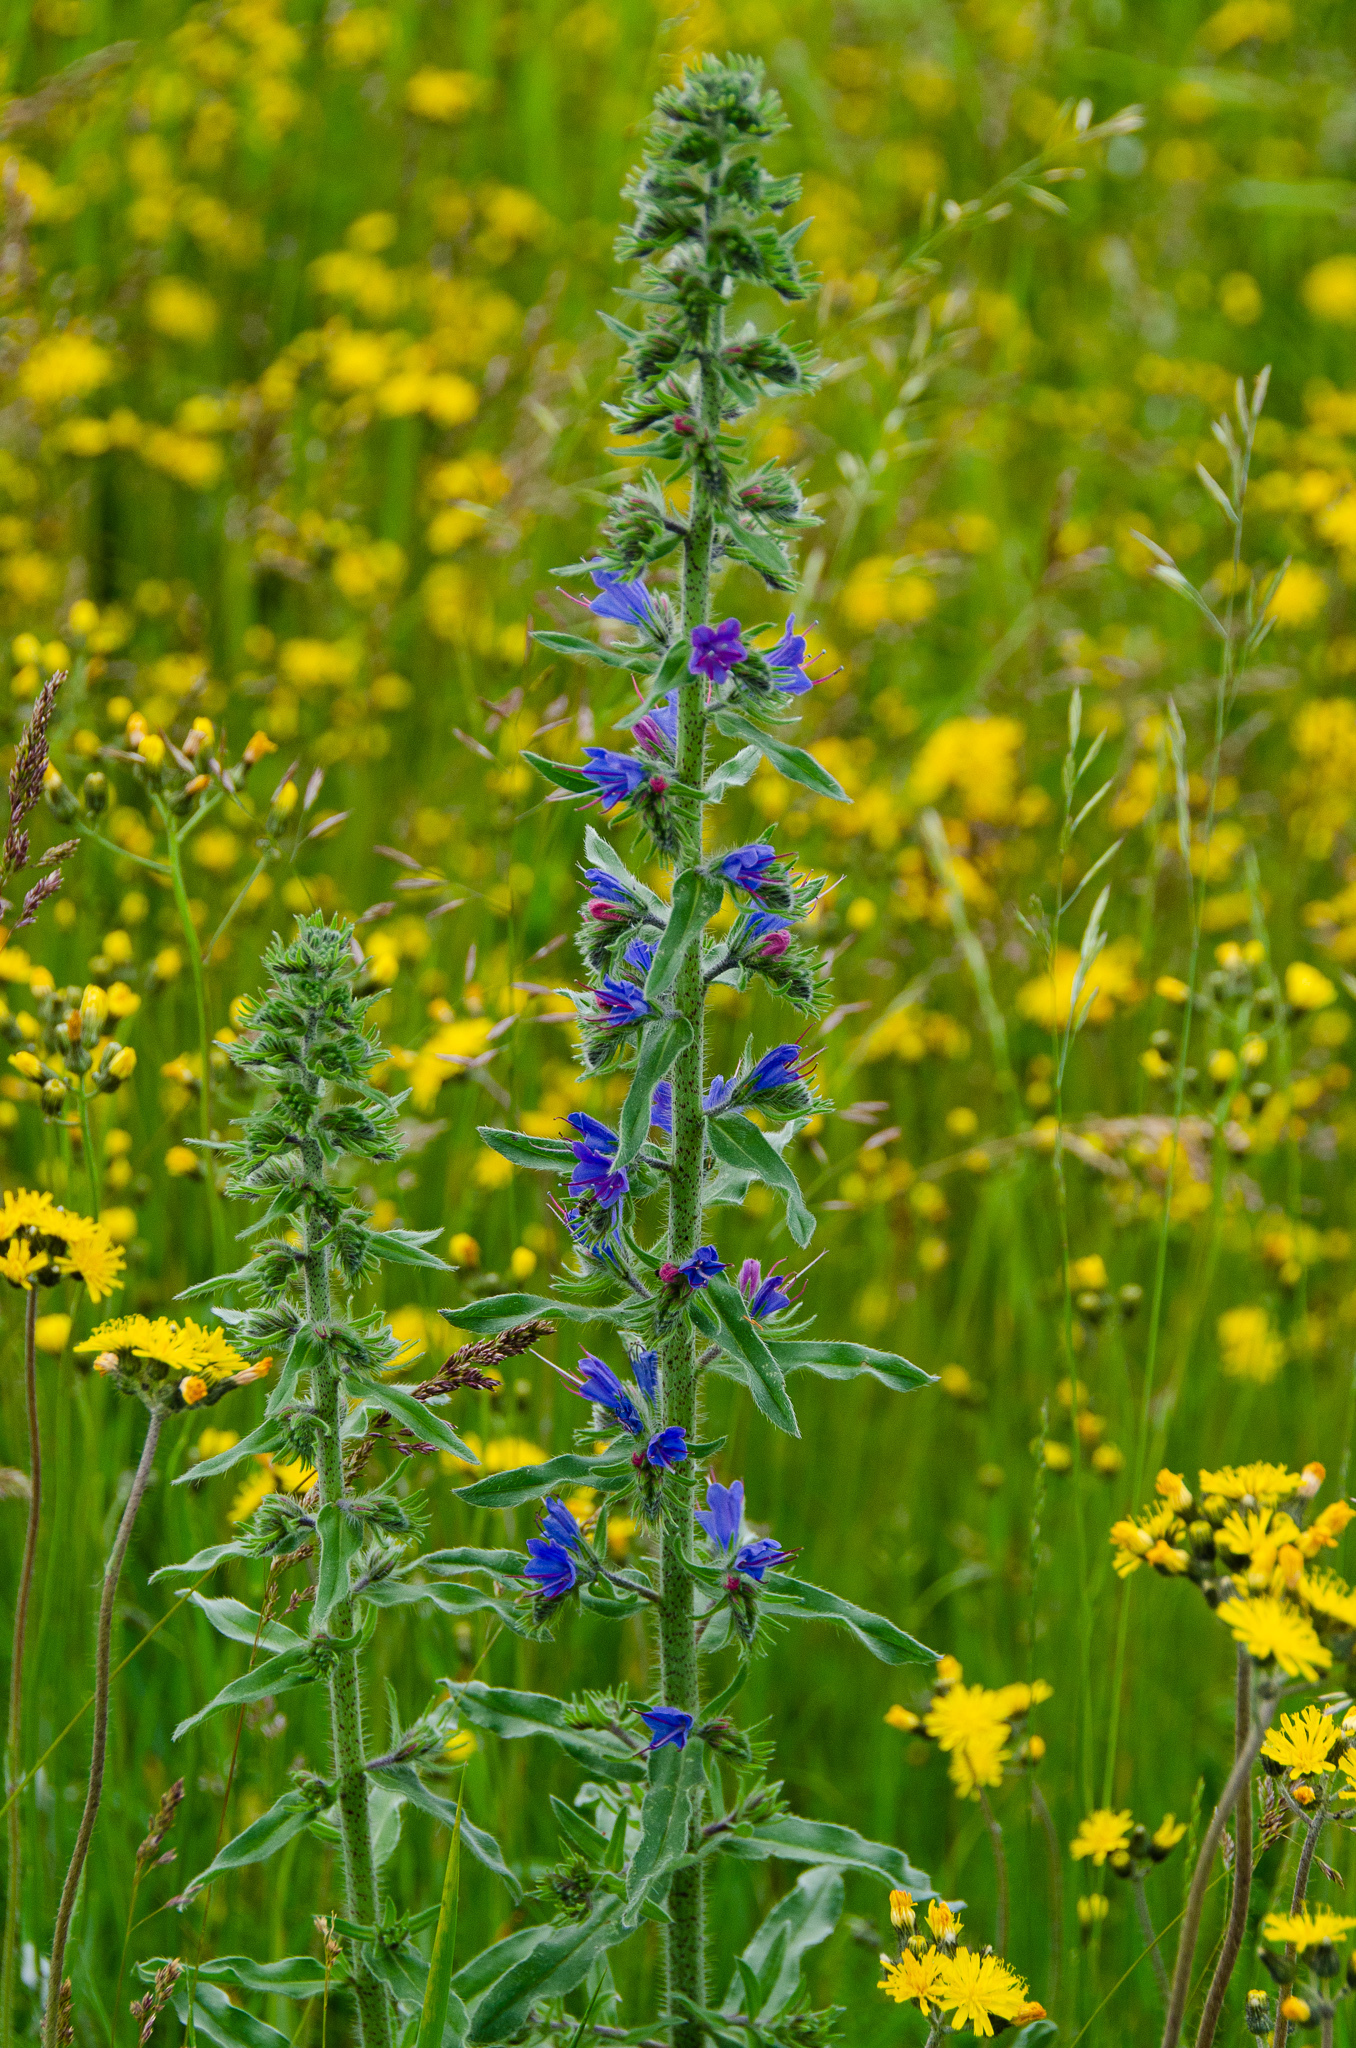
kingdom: Plantae
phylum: Tracheophyta
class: Magnoliopsida
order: Boraginales
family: Boraginaceae
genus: Echium
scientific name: Echium vulgare
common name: Common viper's bugloss
